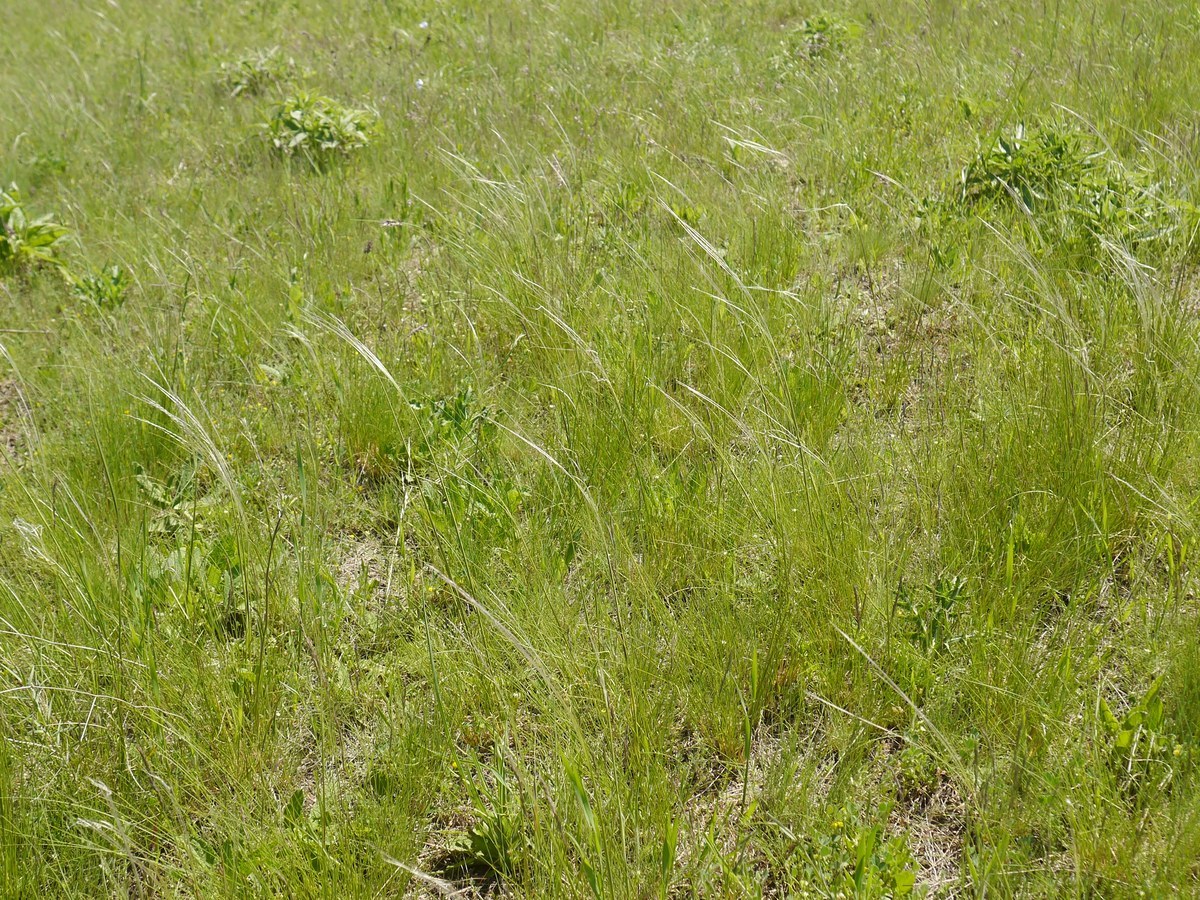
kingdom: Plantae
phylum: Tracheophyta
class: Liliopsida
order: Poales
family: Poaceae
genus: Stipa
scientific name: Stipa lessingiana
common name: Needle grass
